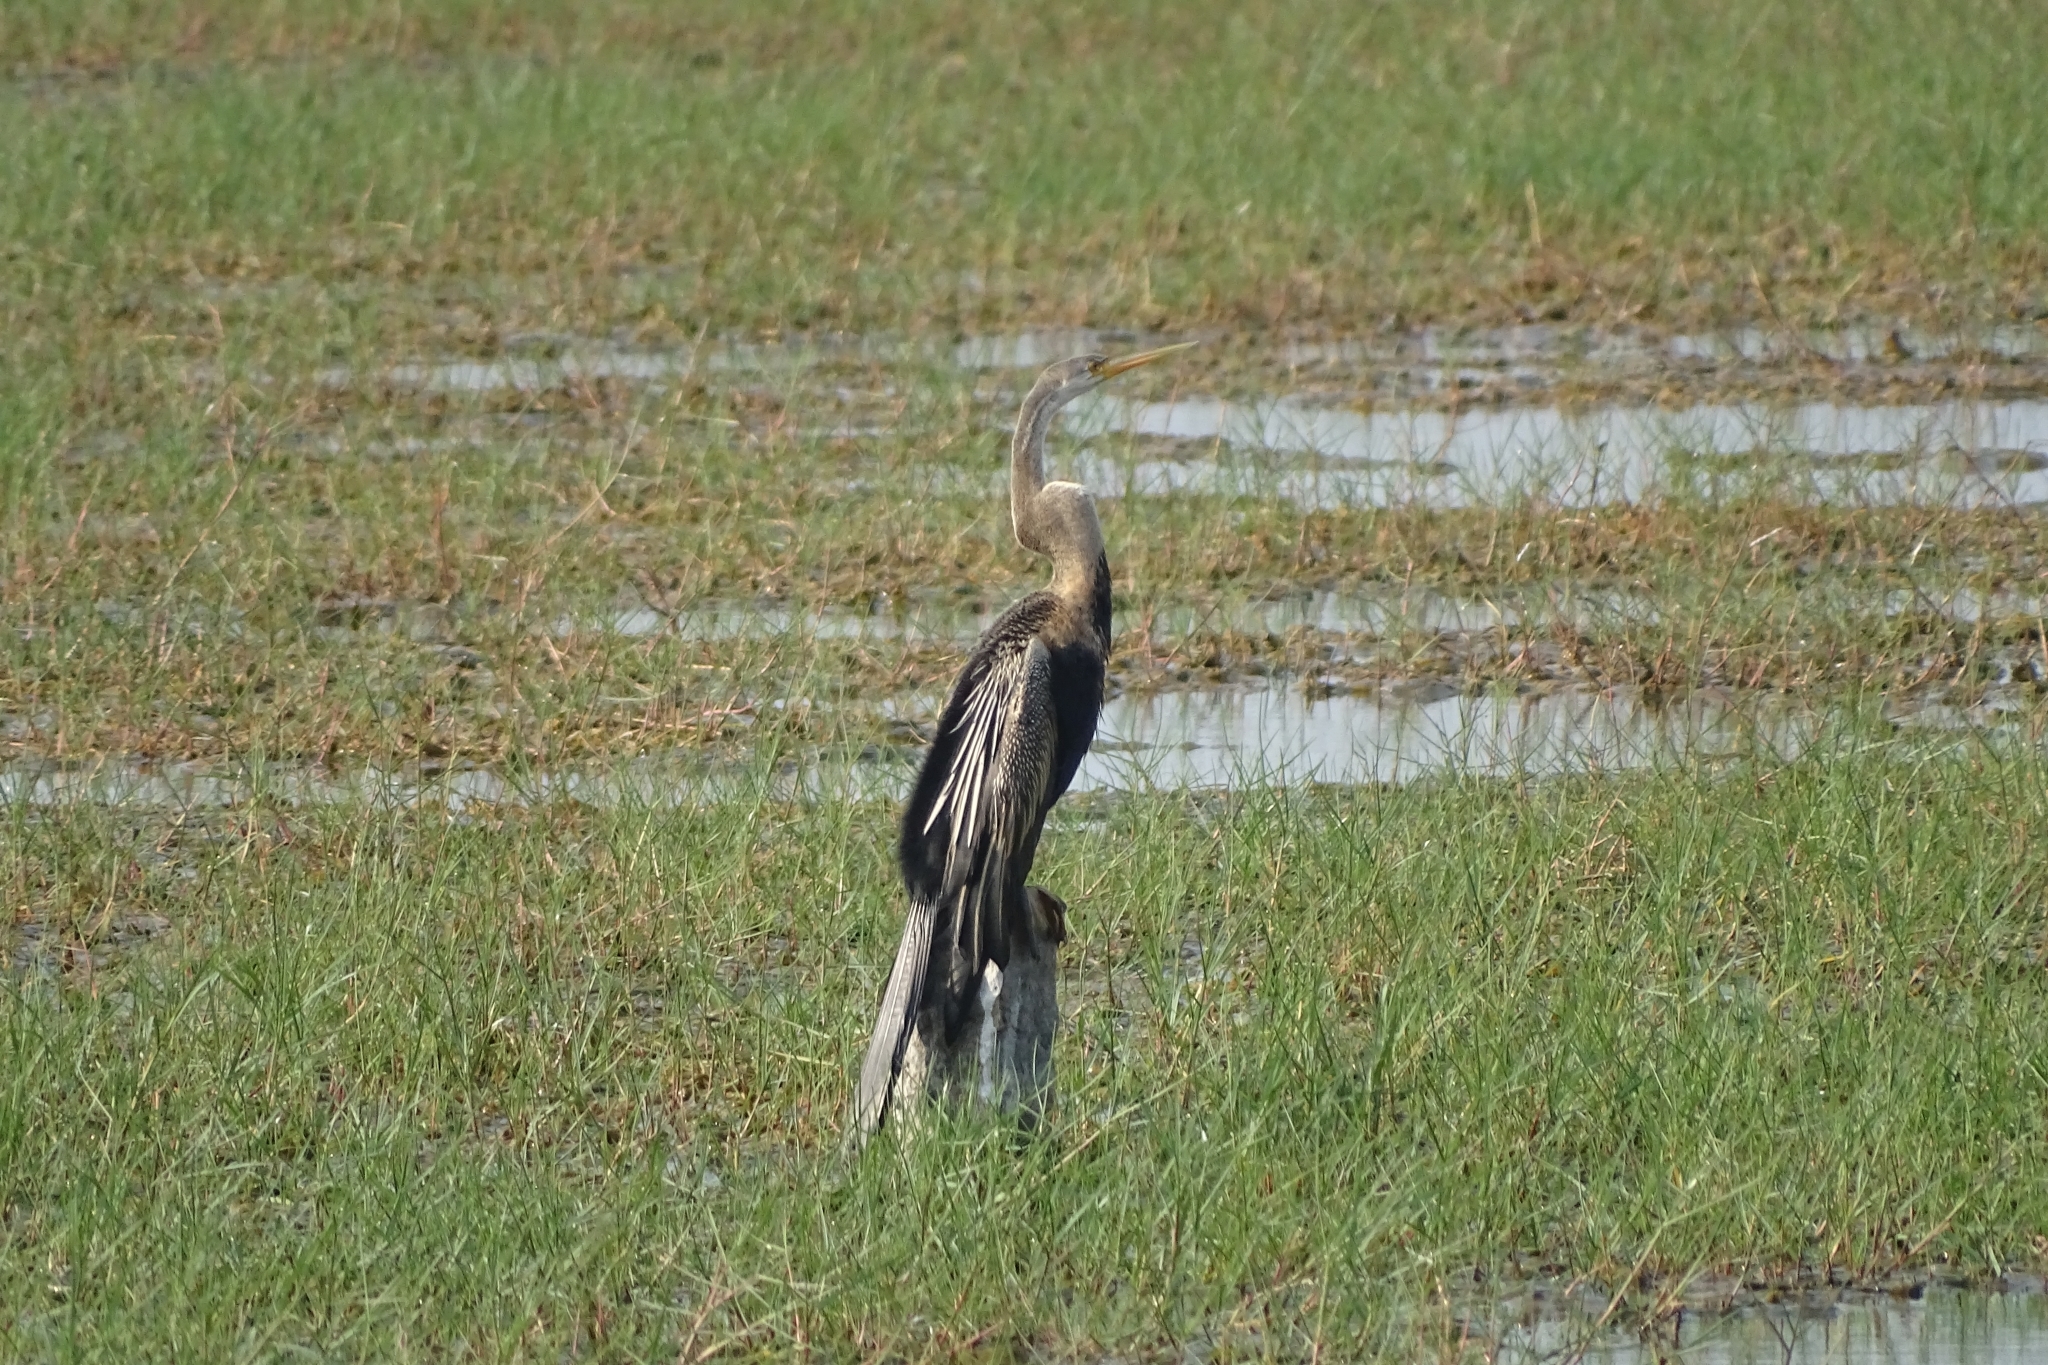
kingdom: Animalia
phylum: Chordata
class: Aves
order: Suliformes
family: Anhingidae
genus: Anhinga
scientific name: Anhinga melanogaster
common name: Oriental darter
